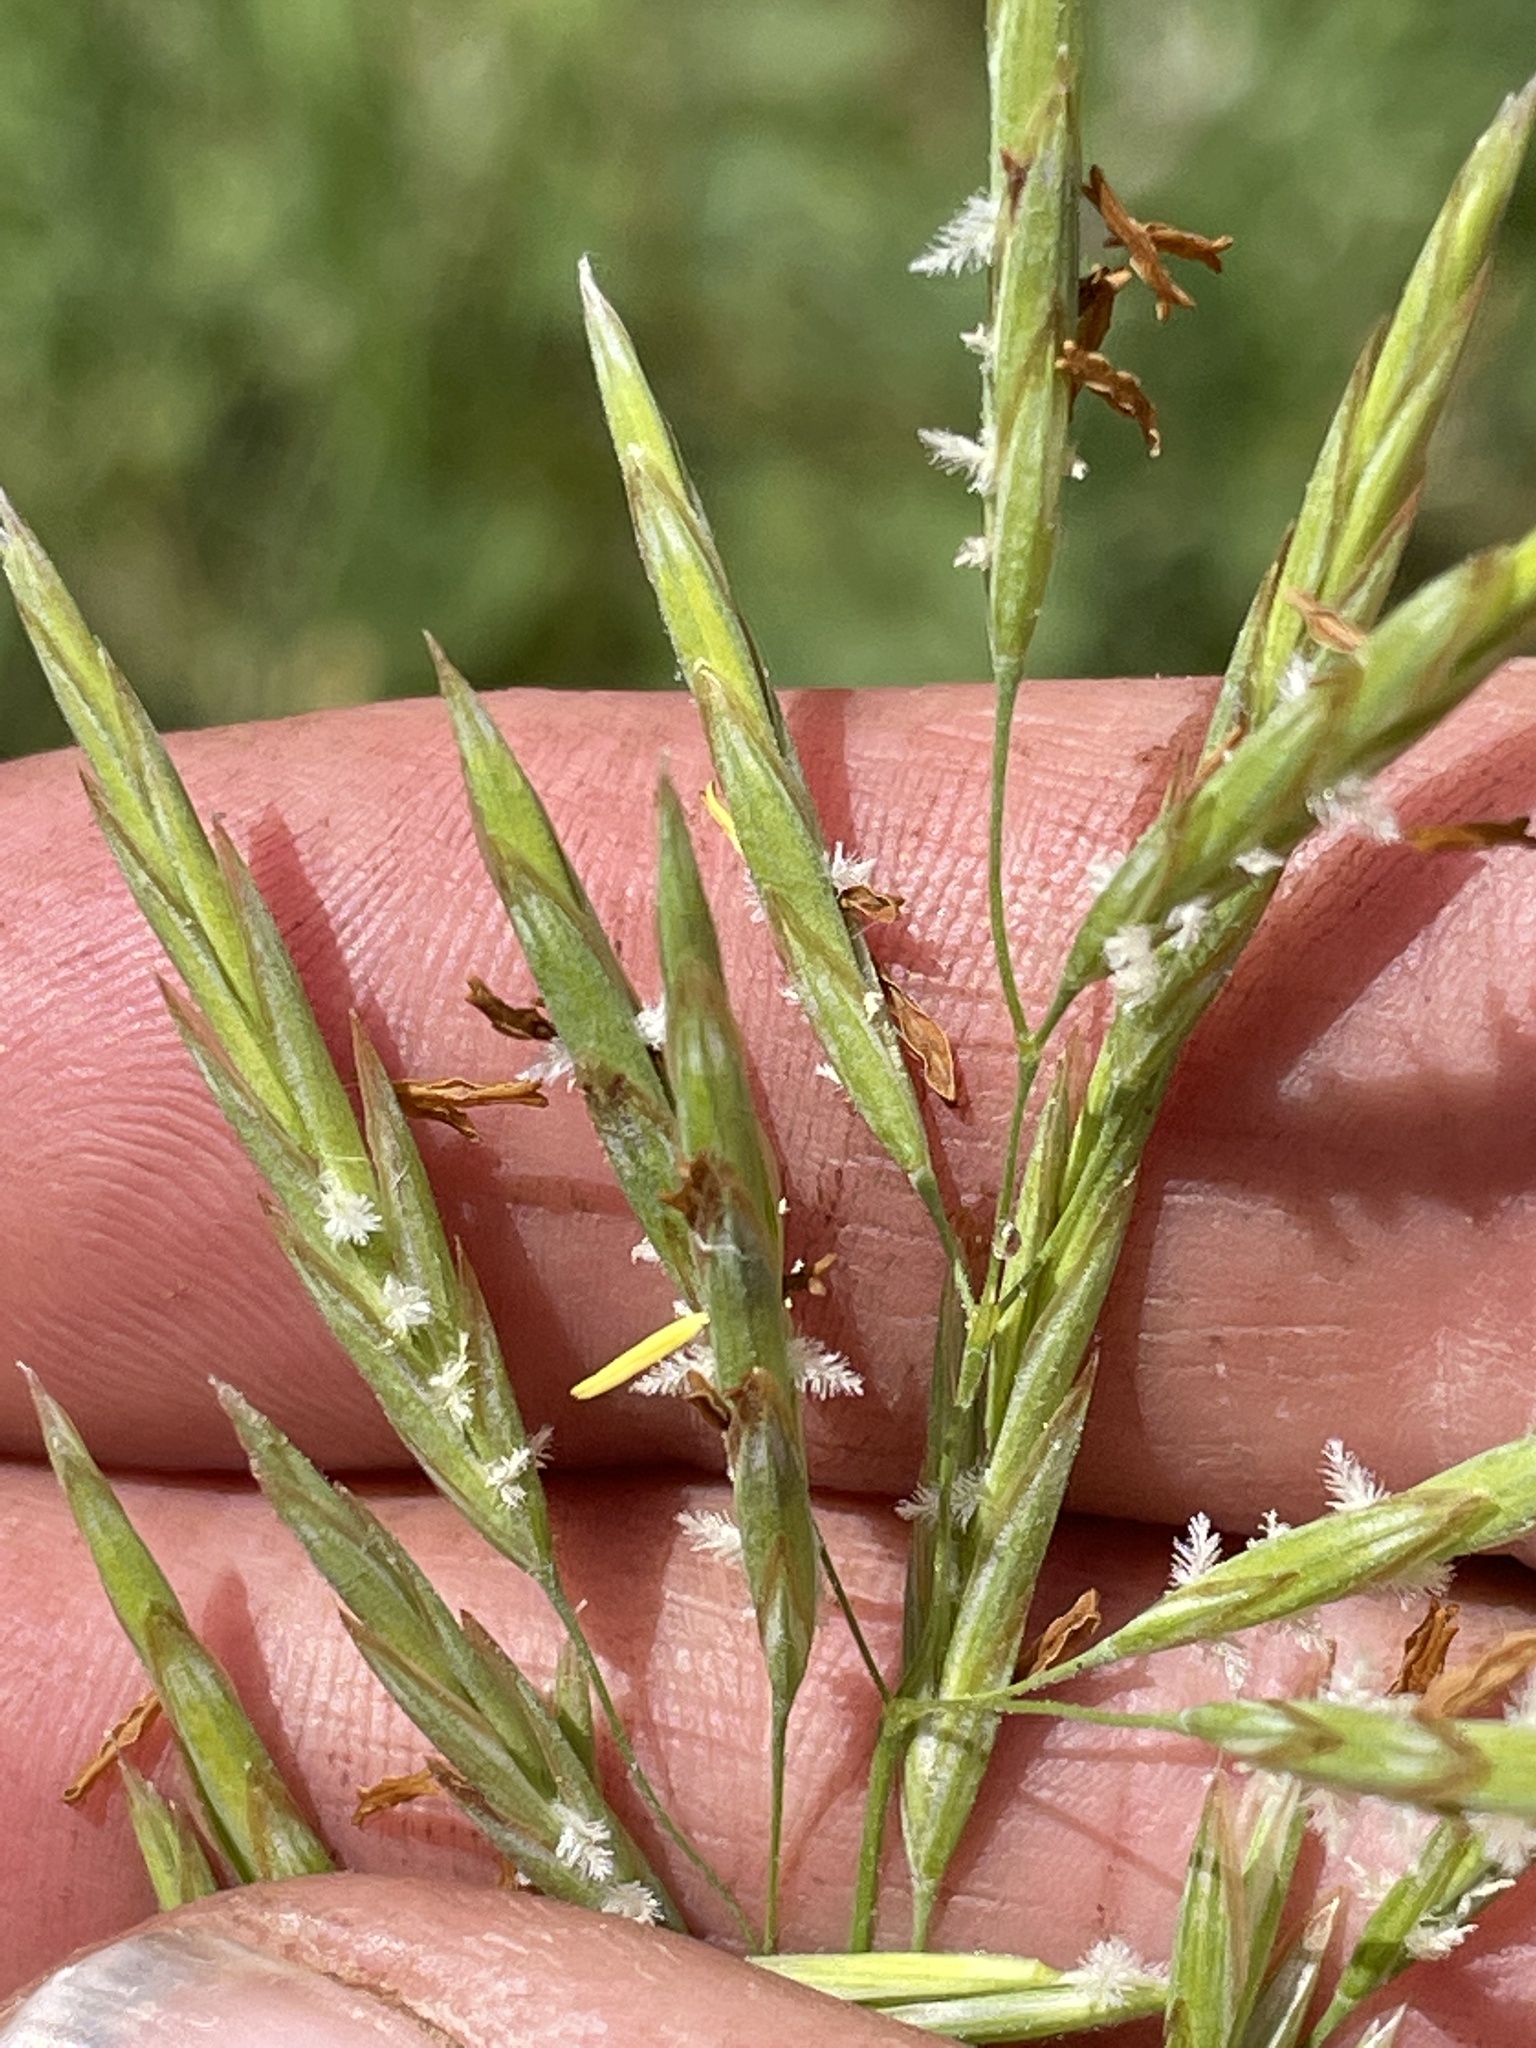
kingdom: Plantae
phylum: Tracheophyta
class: Liliopsida
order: Poales
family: Poaceae
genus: Bromus
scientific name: Bromus inermis
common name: Smooth brome
